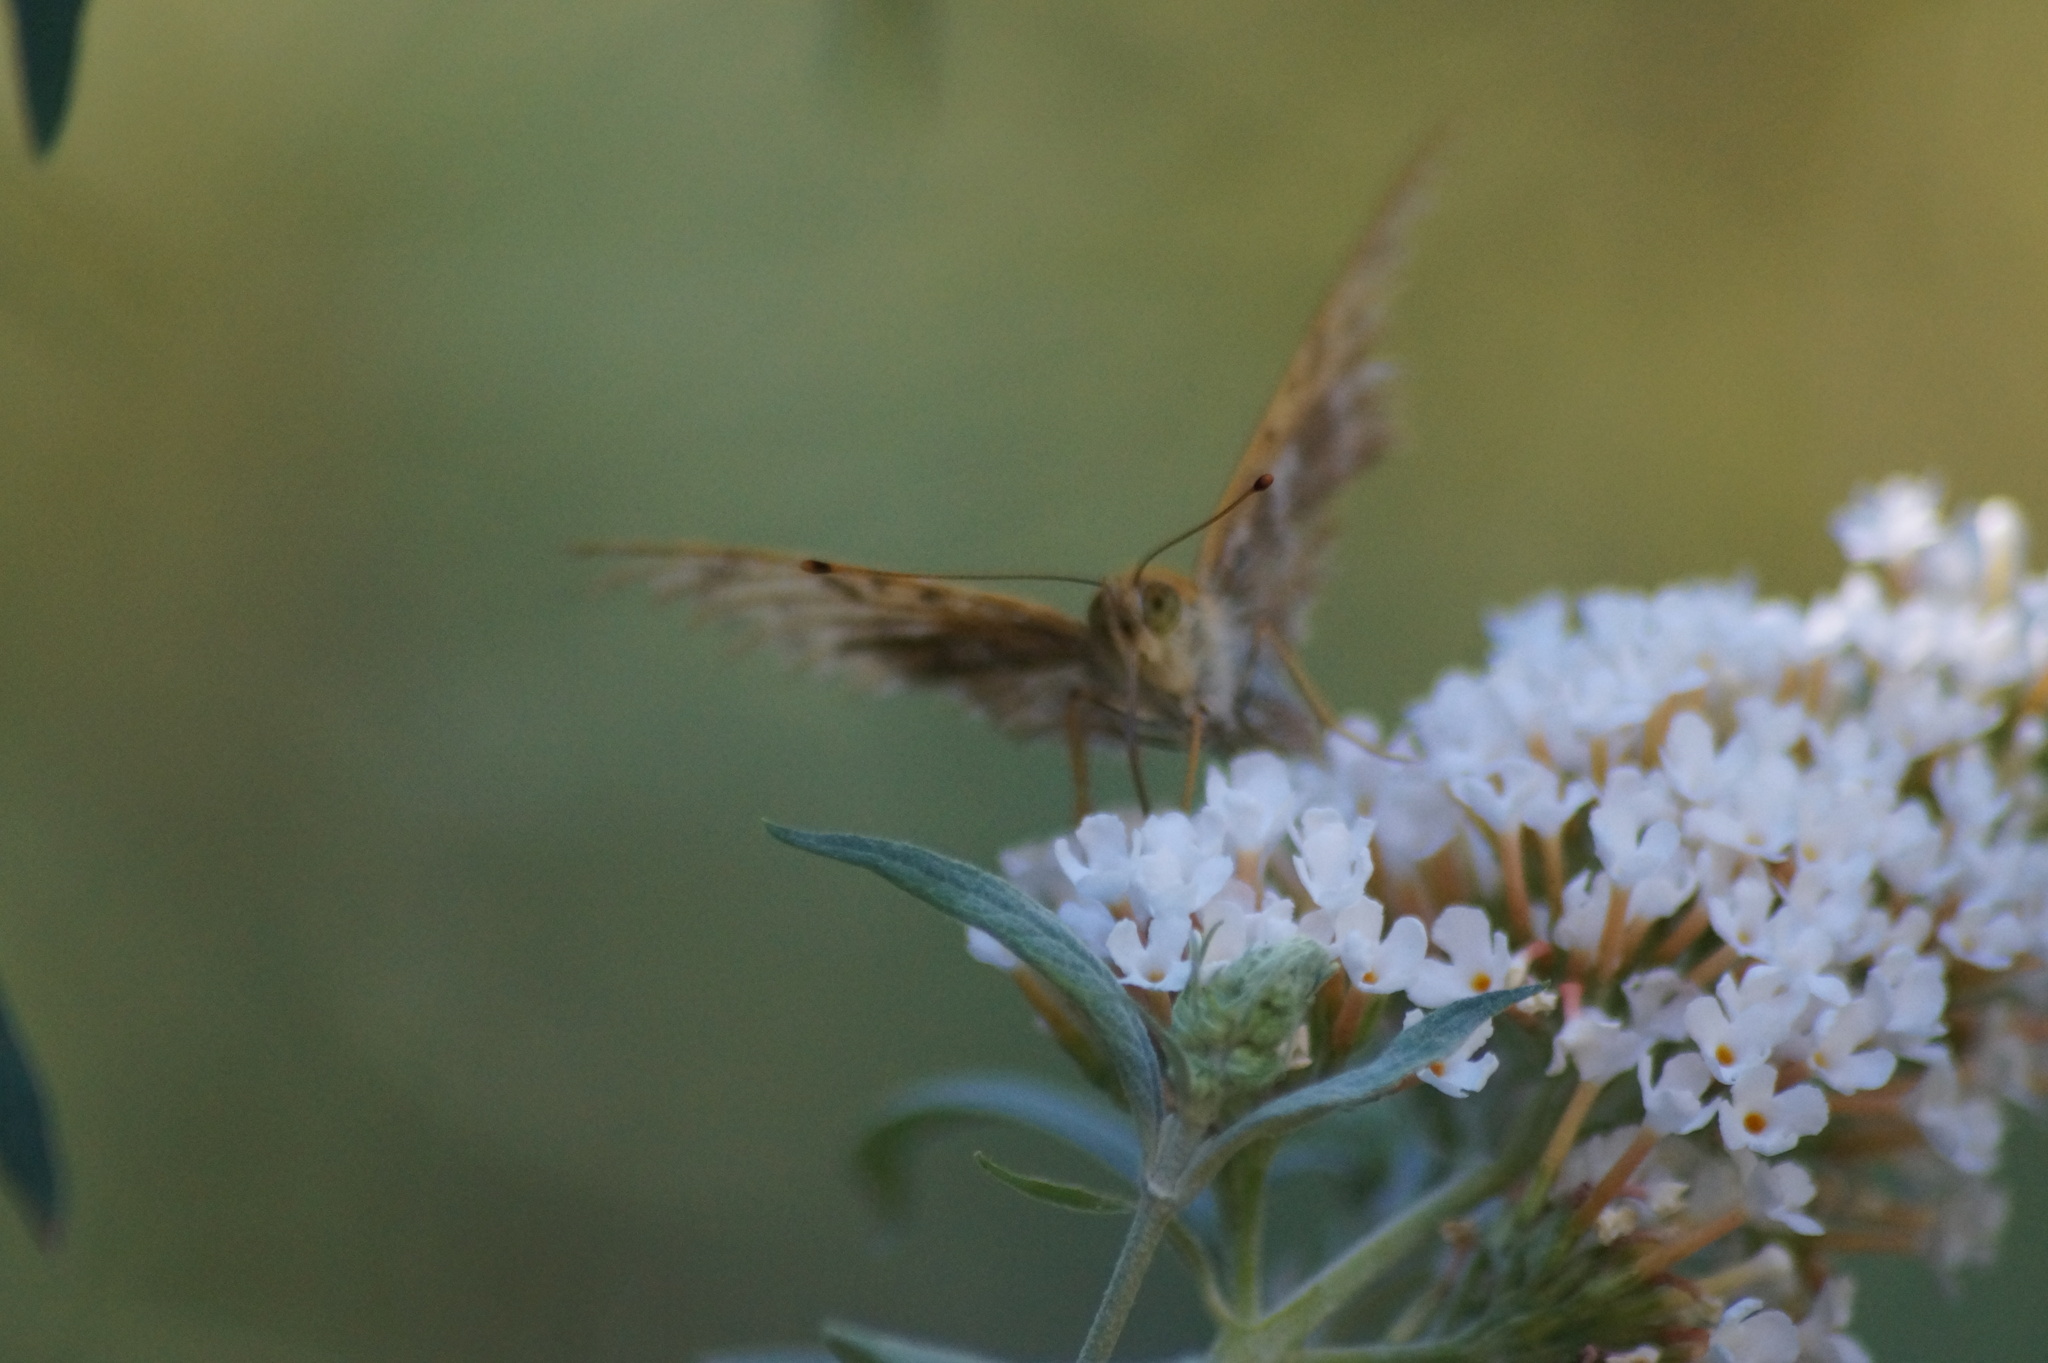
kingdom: Animalia
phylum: Arthropoda
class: Insecta
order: Lepidoptera
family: Nymphalidae
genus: Argynnis
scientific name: Argynnis paphia
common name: Silver-washed fritillary
